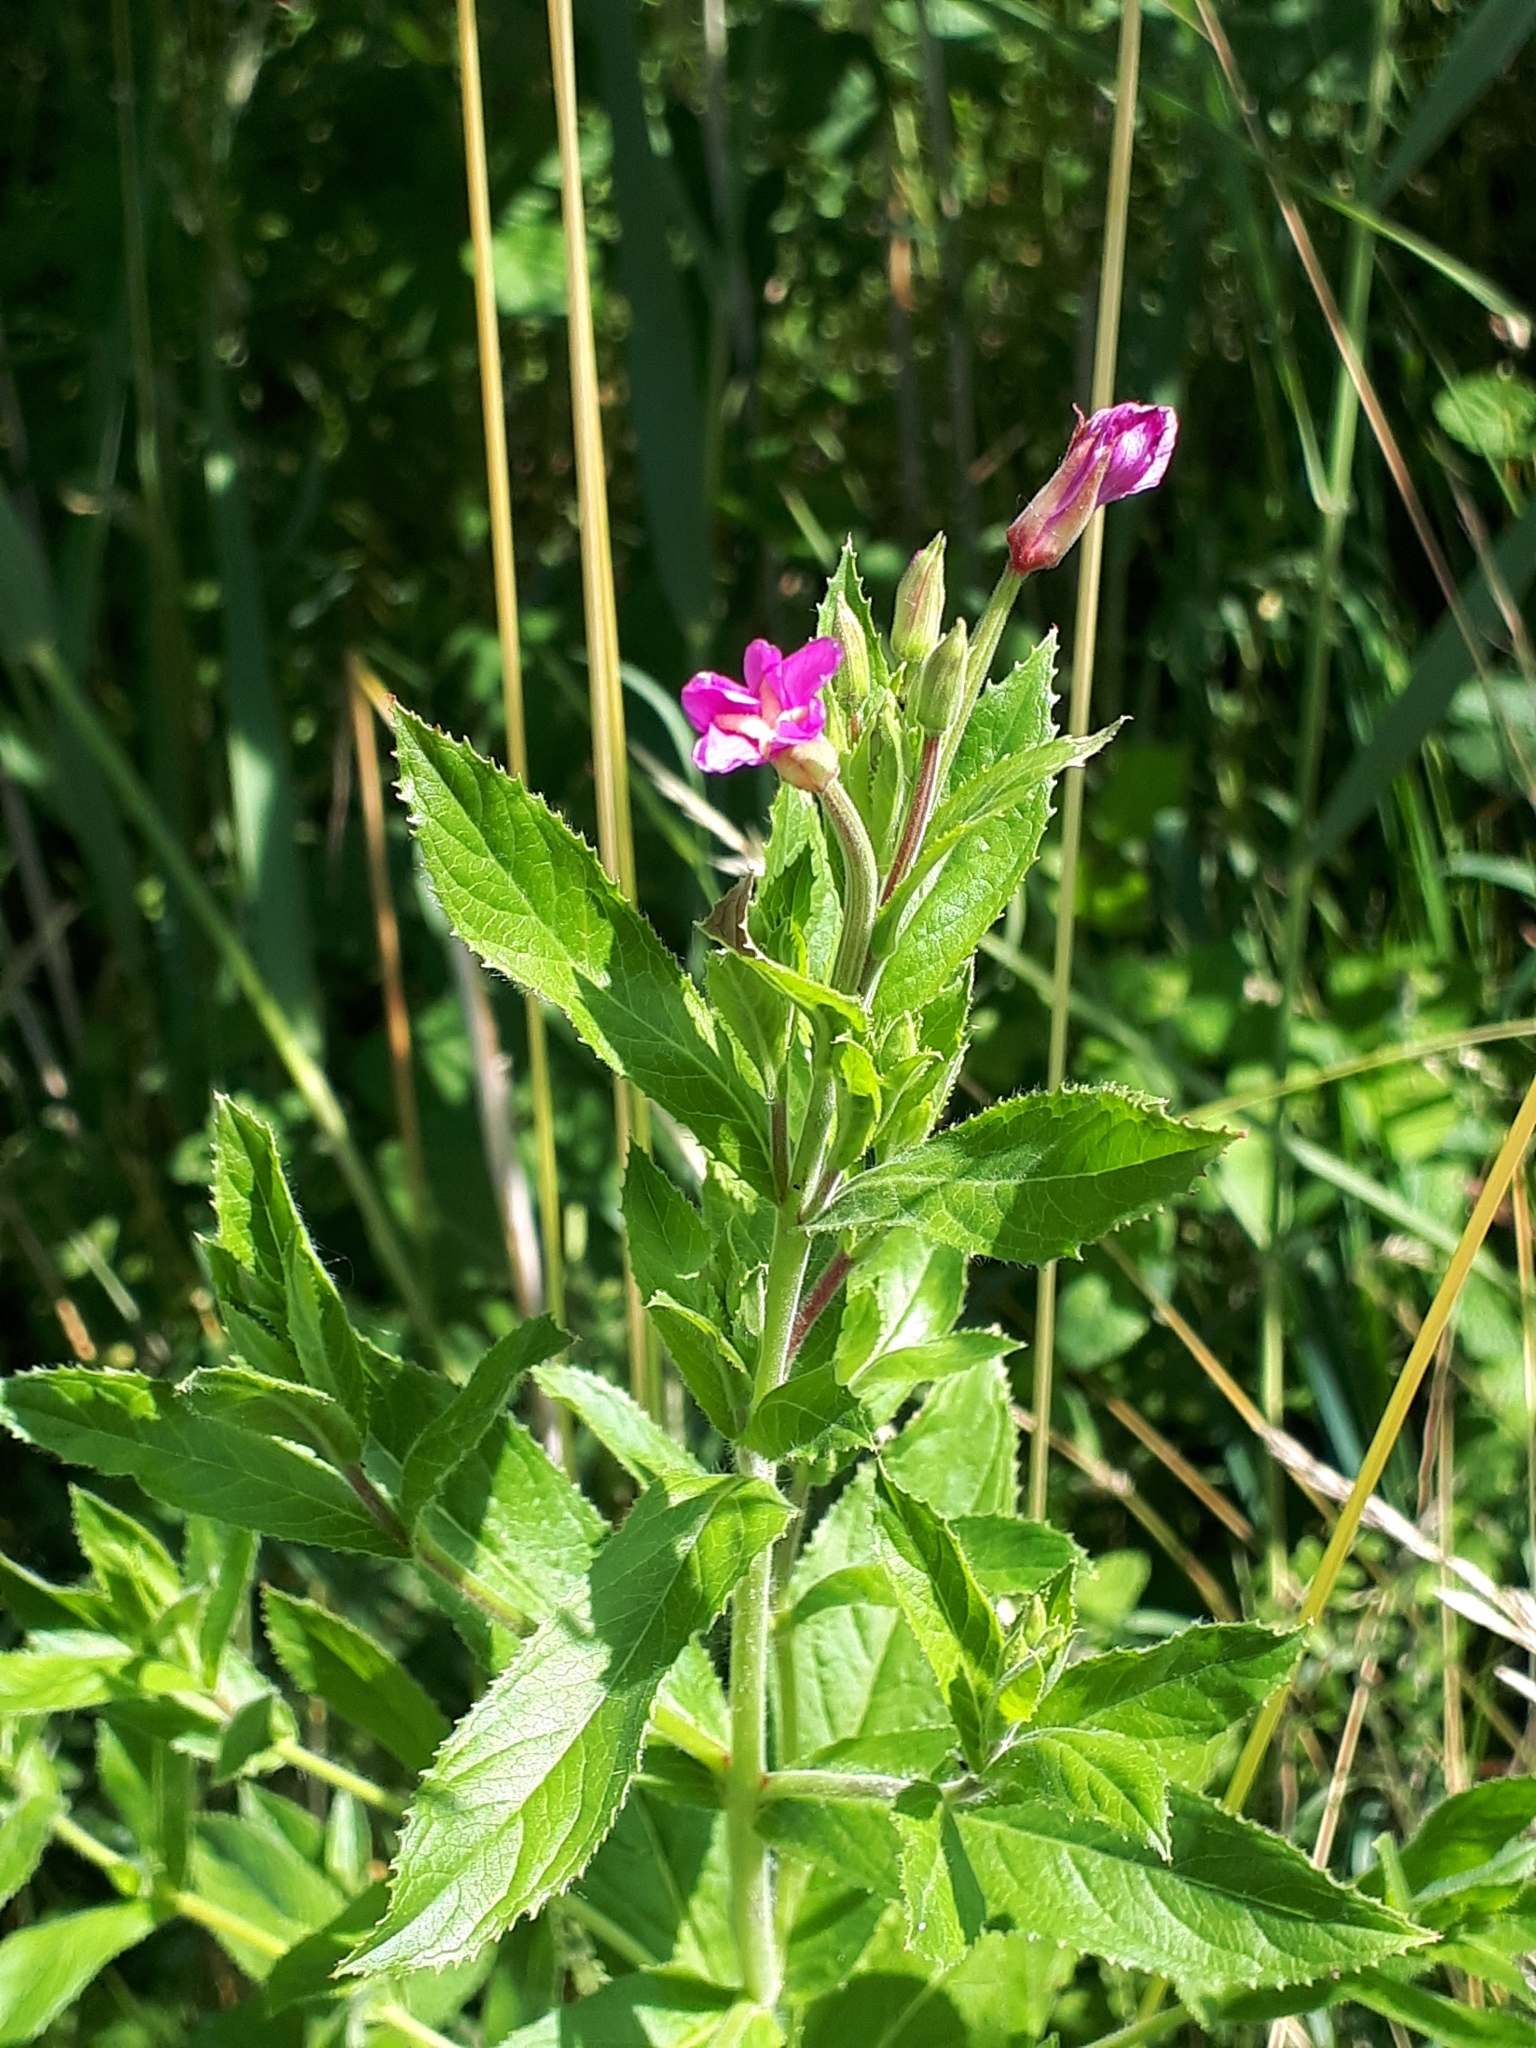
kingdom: Plantae
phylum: Tracheophyta
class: Magnoliopsida
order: Myrtales
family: Onagraceae
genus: Epilobium
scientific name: Epilobium hirsutum
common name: Great willowherb
